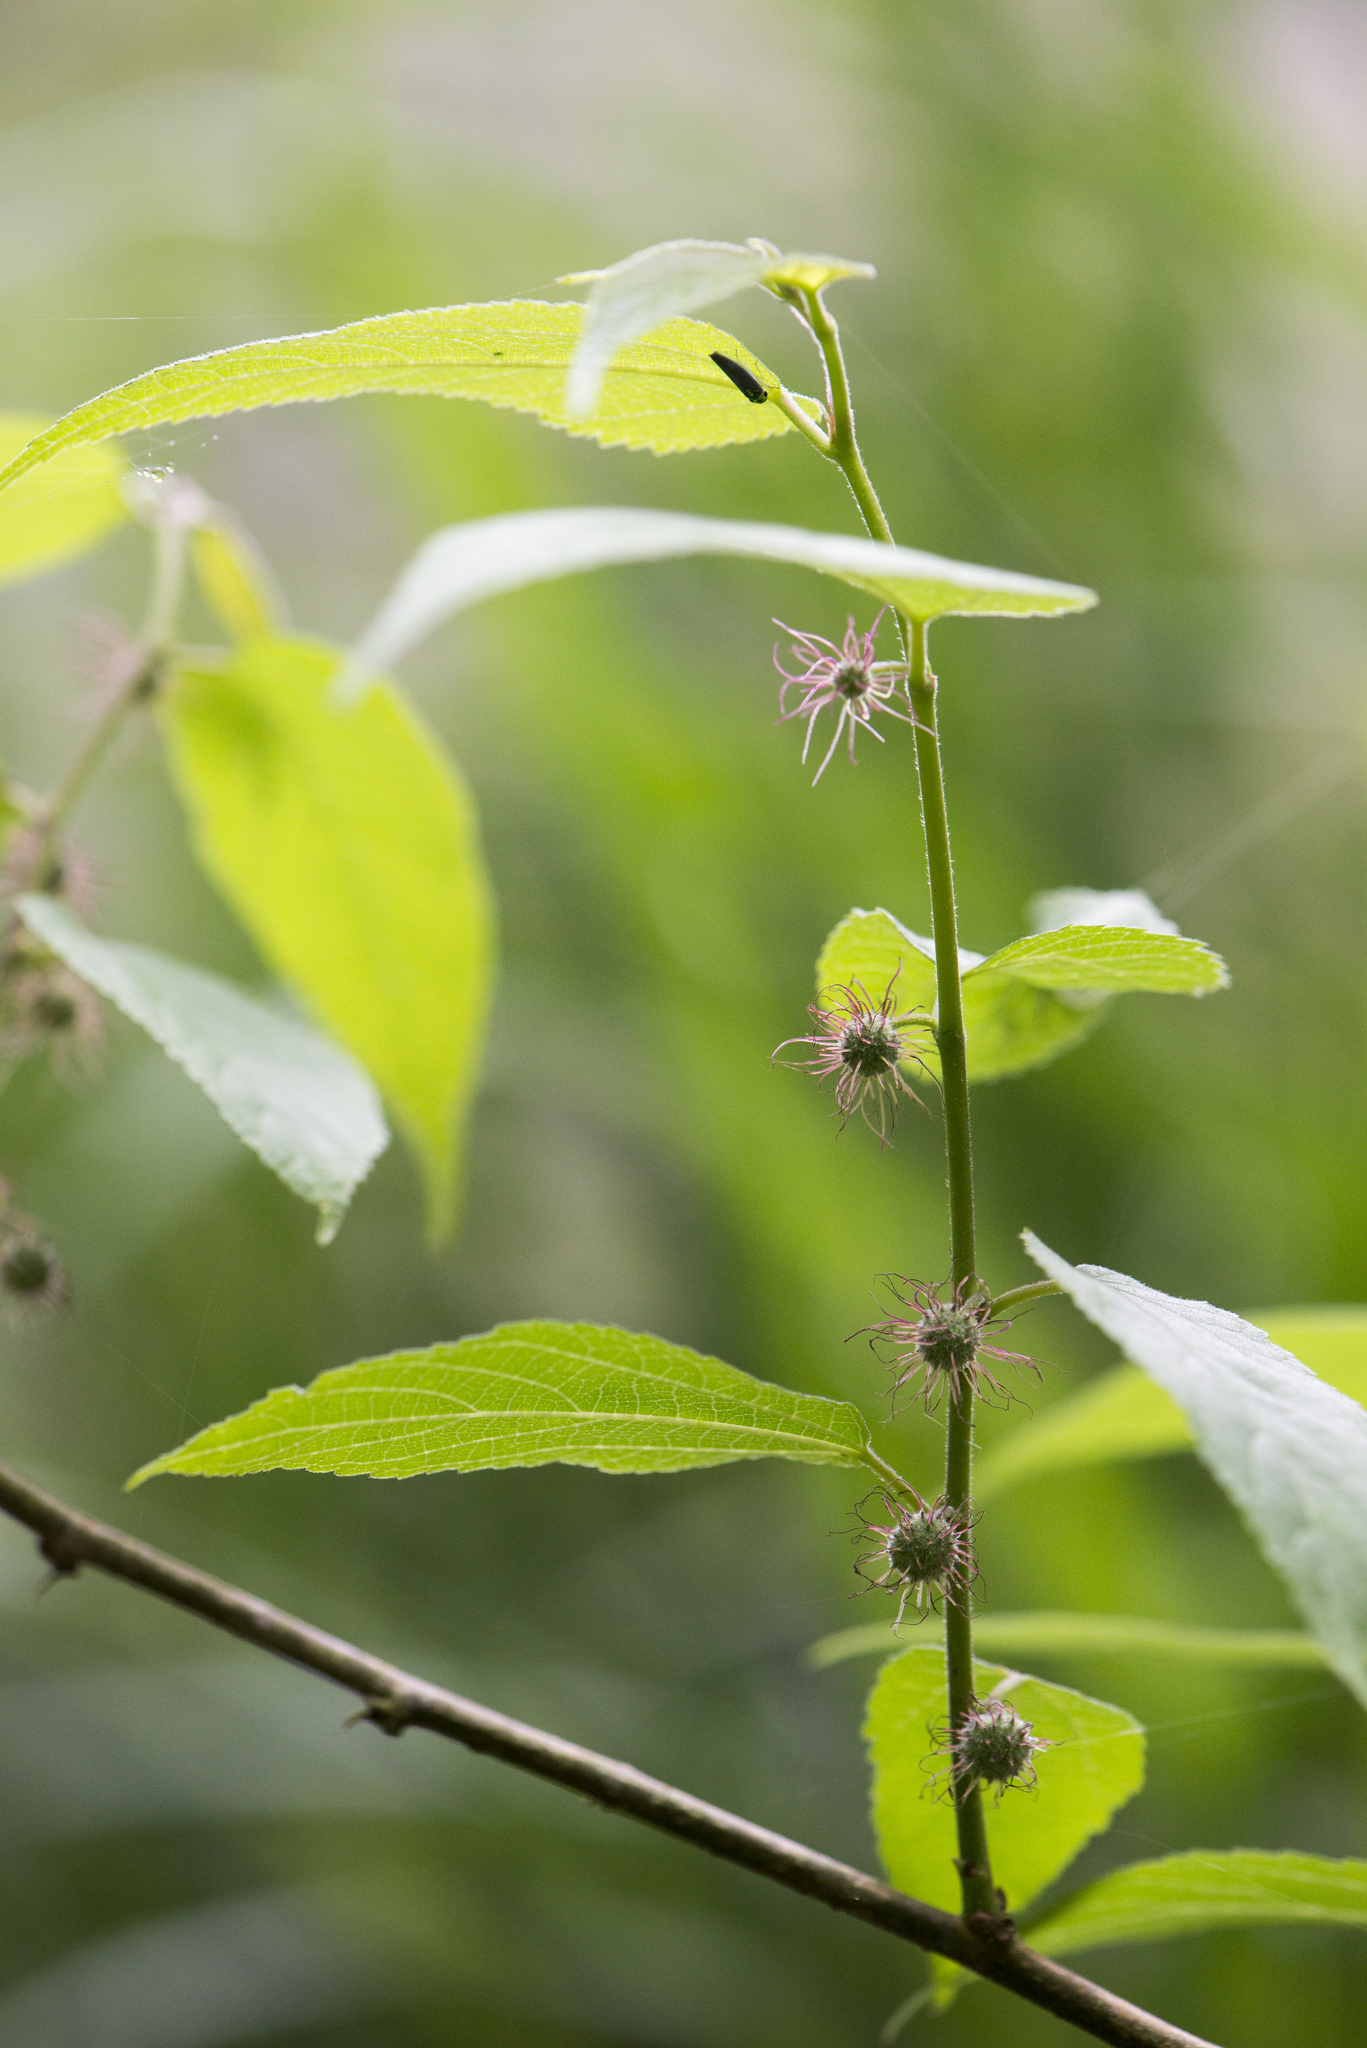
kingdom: Plantae
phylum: Tracheophyta
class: Magnoliopsida
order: Rosales
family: Moraceae
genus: Broussonetia
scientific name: Broussonetia monoica
